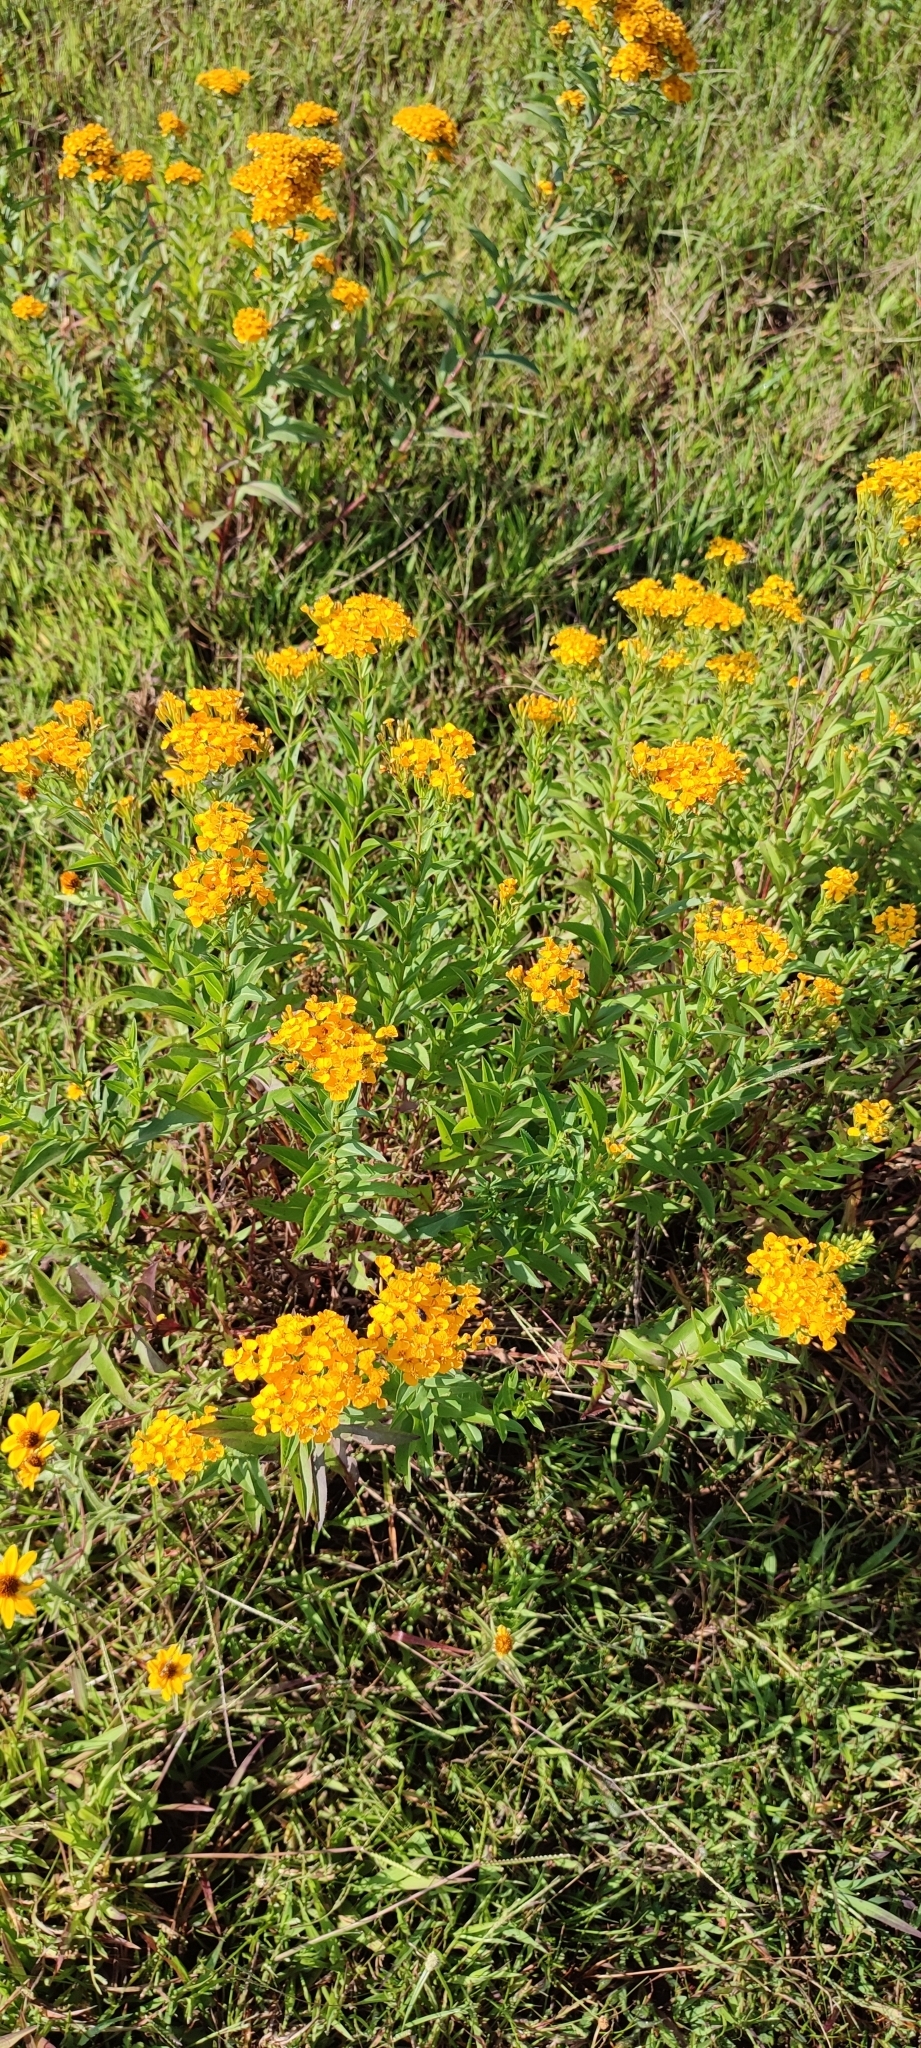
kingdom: Plantae
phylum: Tracheophyta
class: Magnoliopsida
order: Asterales
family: Asteraceae
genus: Tagetes
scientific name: Tagetes lucida
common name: Sweetscented marigold
